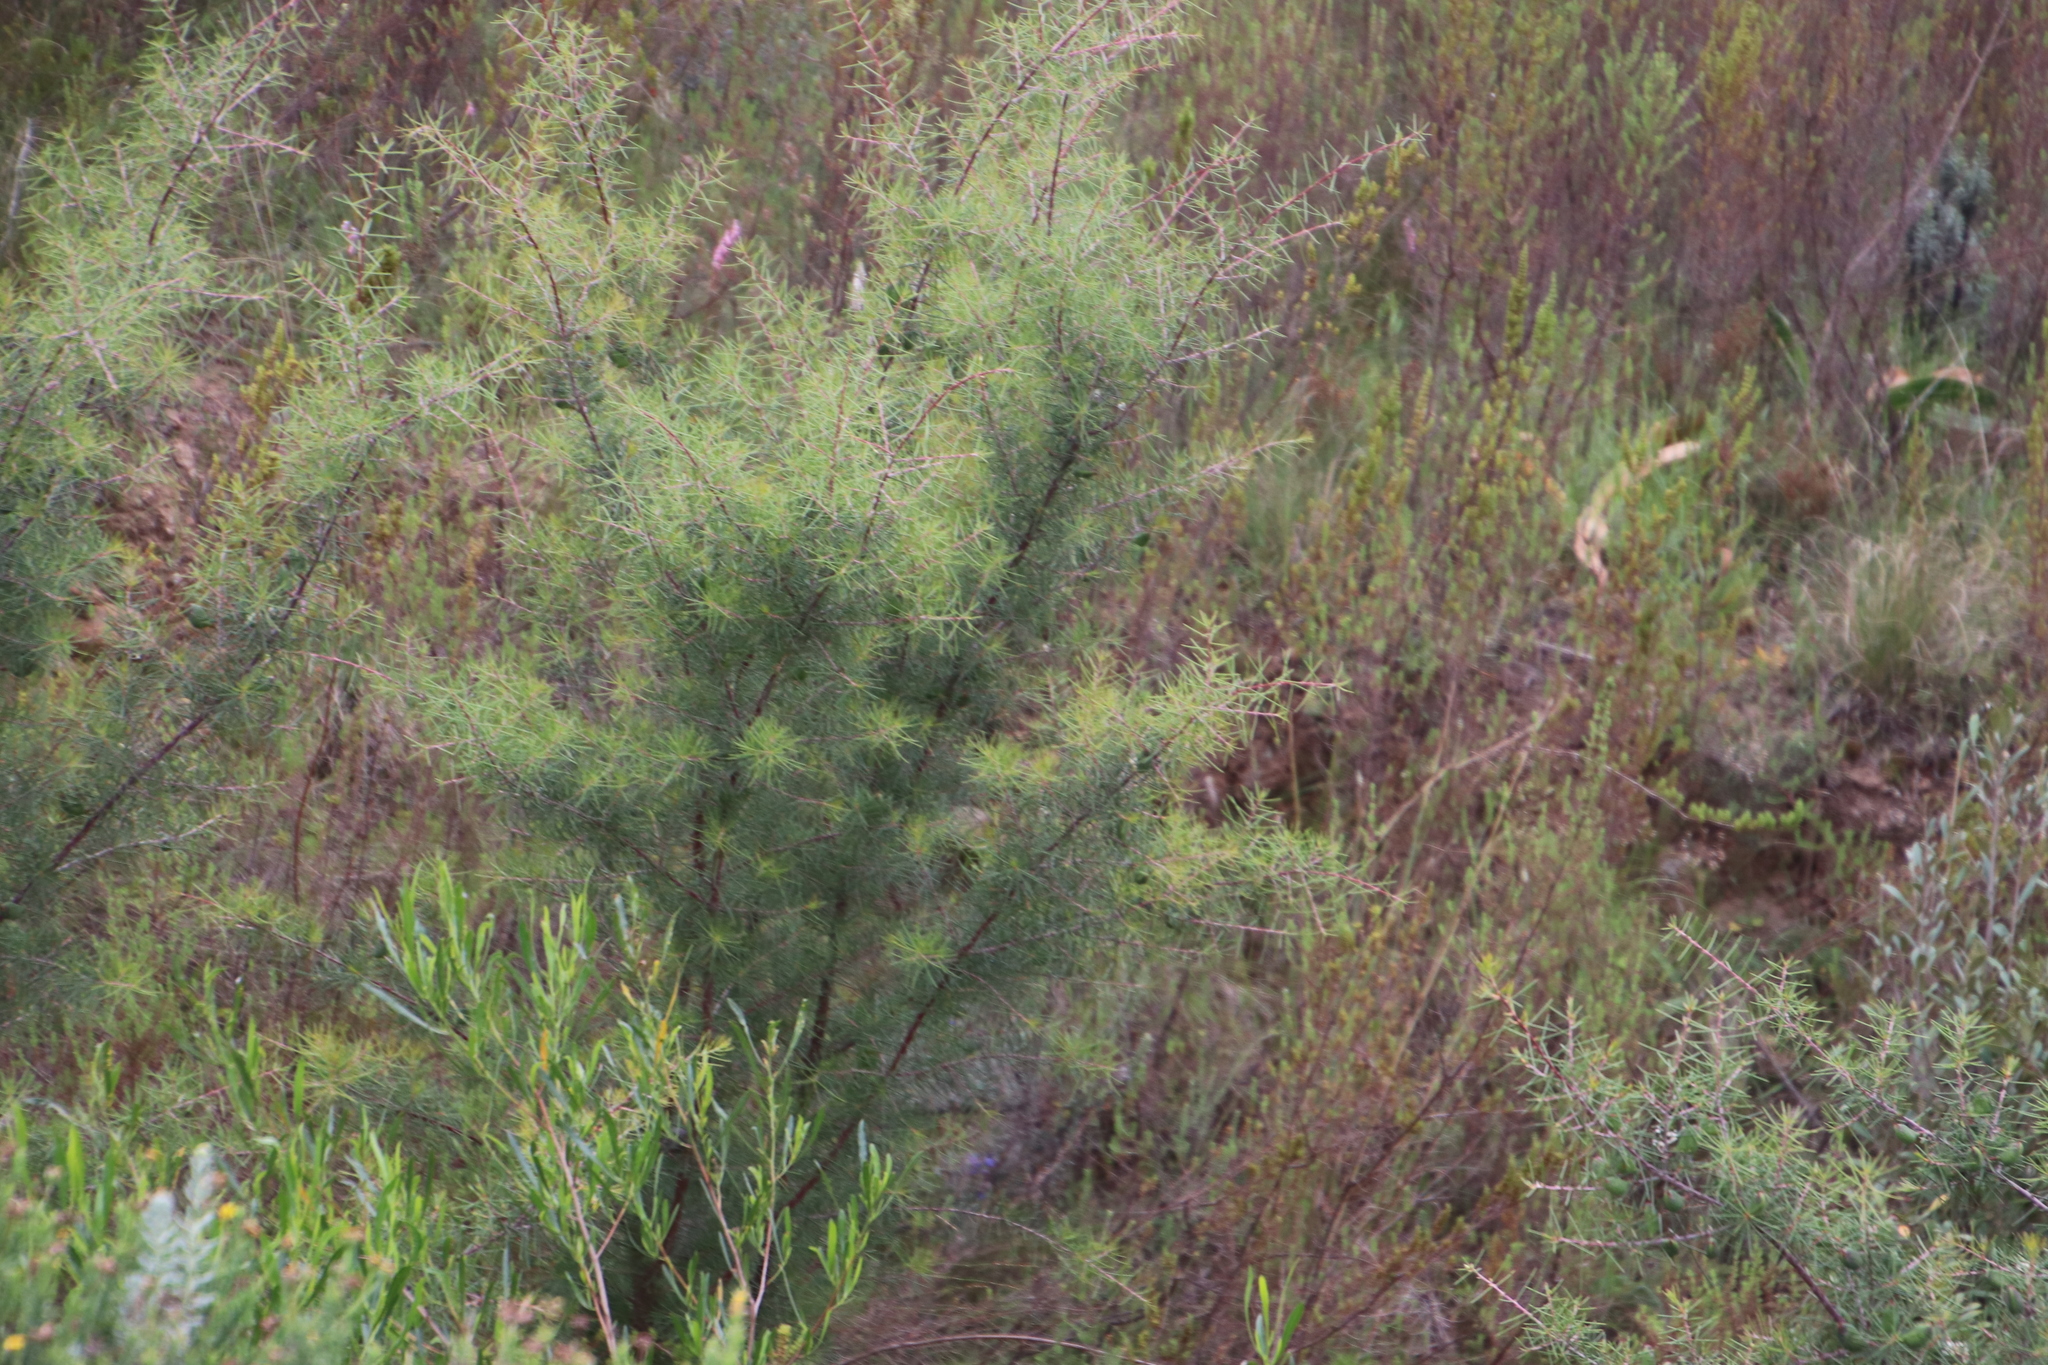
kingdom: Plantae
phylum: Tracheophyta
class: Magnoliopsida
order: Proteales
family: Proteaceae
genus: Hakea
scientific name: Hakea sericea
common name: Needle bush
